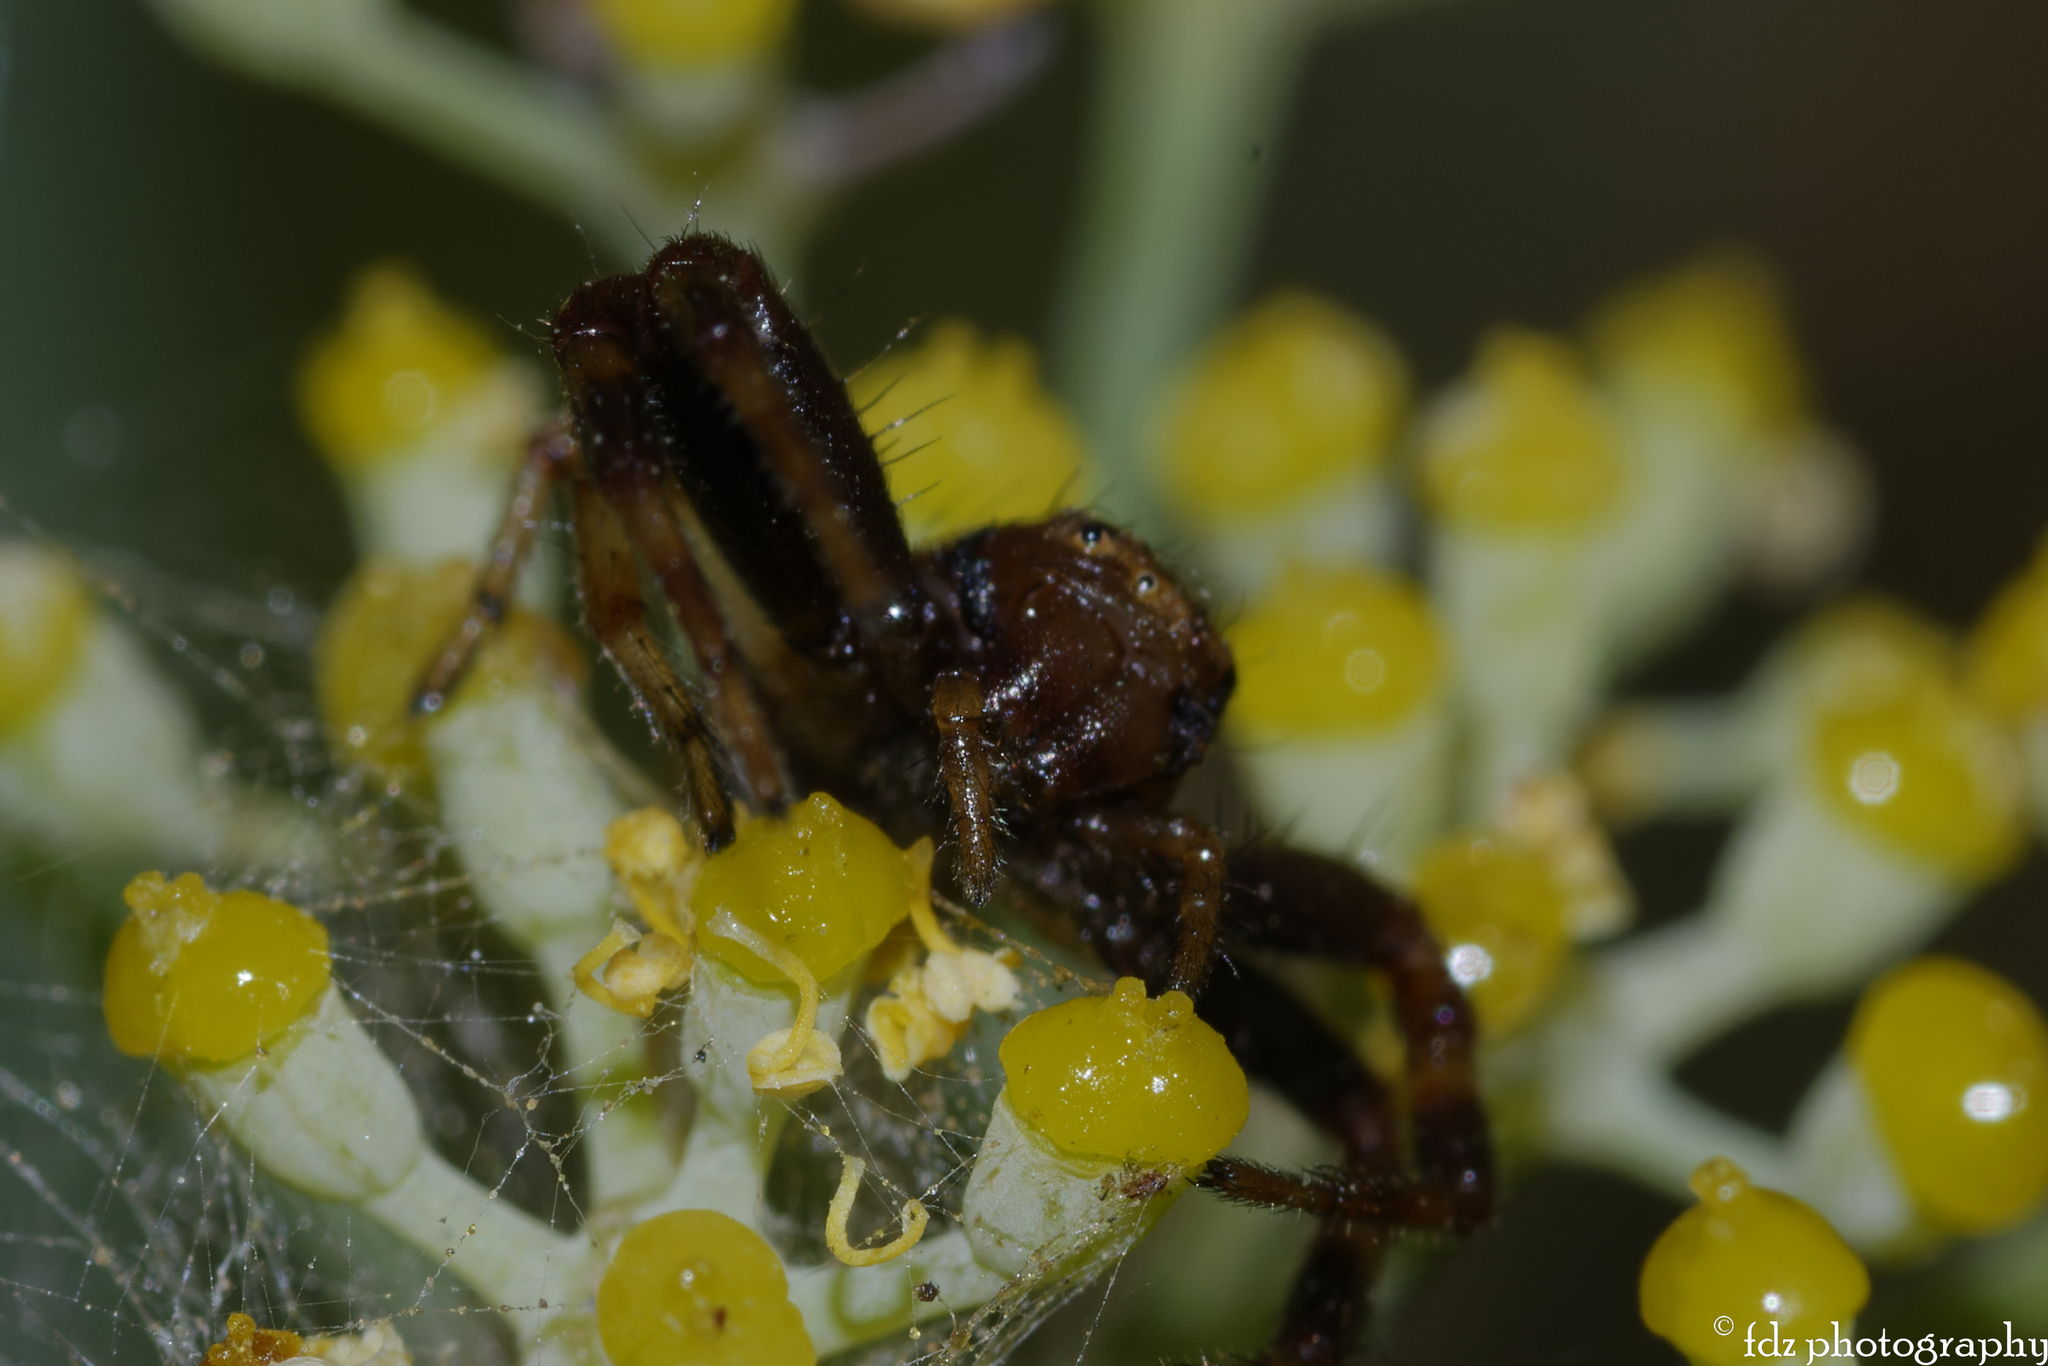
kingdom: Animalia
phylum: Arthropoda
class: Arachnida
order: Araneae
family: Thomisidae
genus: Synema
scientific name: Synema globosum
